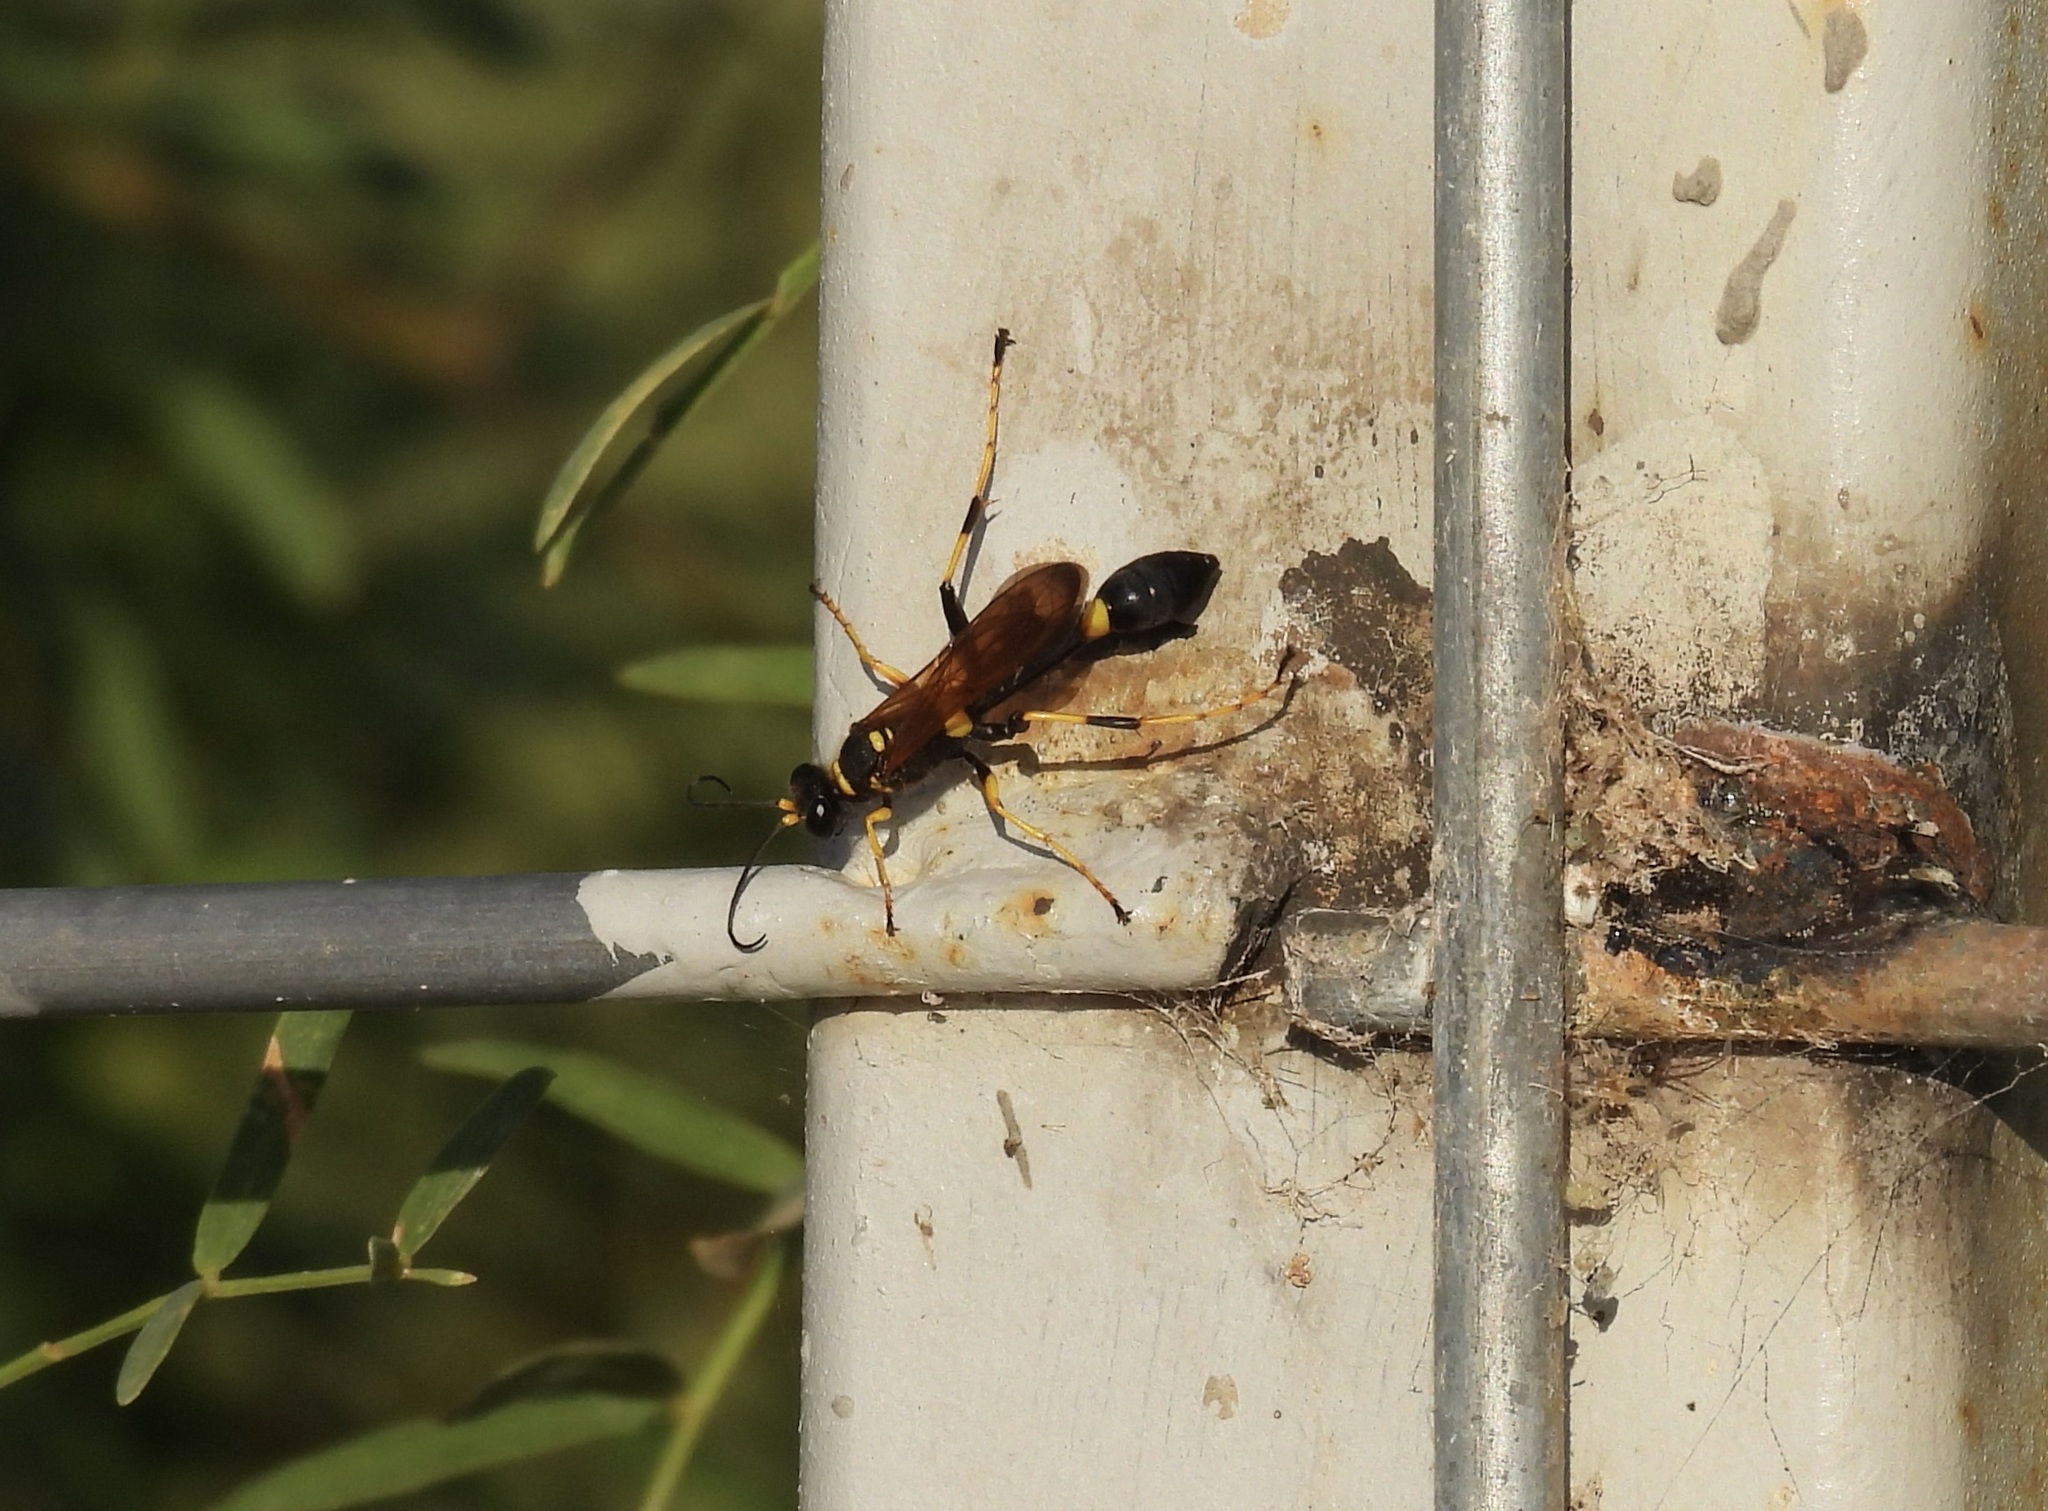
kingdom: Animalia
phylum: Arthropoda
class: Insecta
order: Hymenoptera
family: Sphecidae
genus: Sceliphron
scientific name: Sceliphron caementarium
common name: Mud dauber
